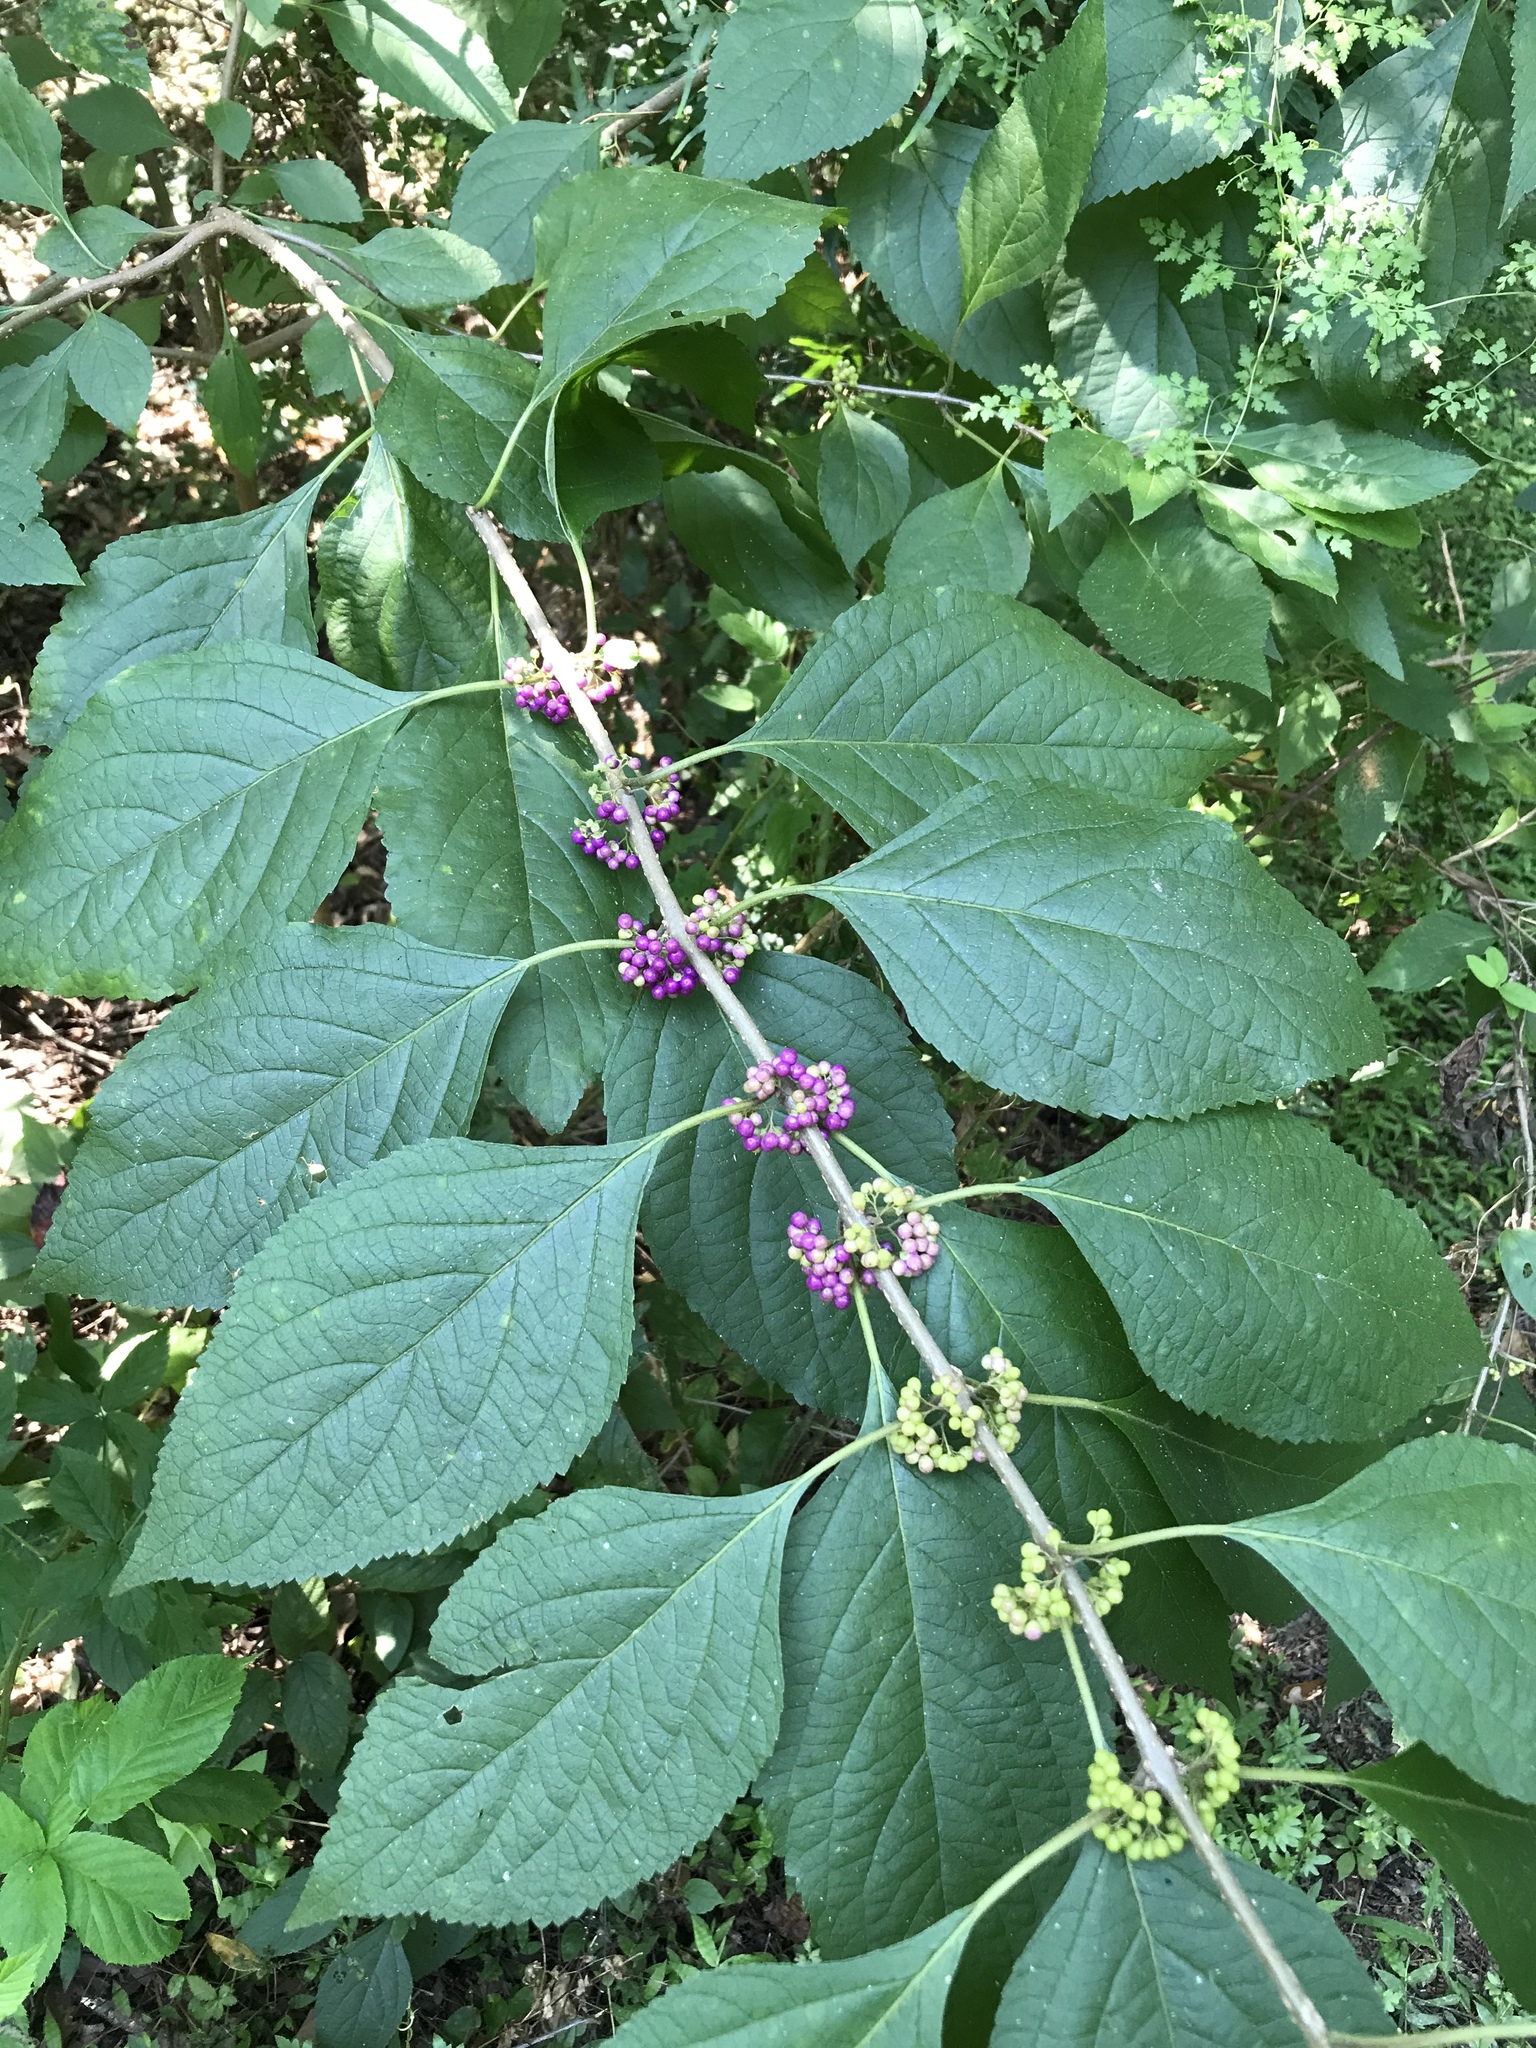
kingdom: Plantae
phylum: Tracheophyta
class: Magnoliopsida
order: Lamiales
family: Lamiaceae
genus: Callicarpa
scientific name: Callicarpa americana
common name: American beautyberry
